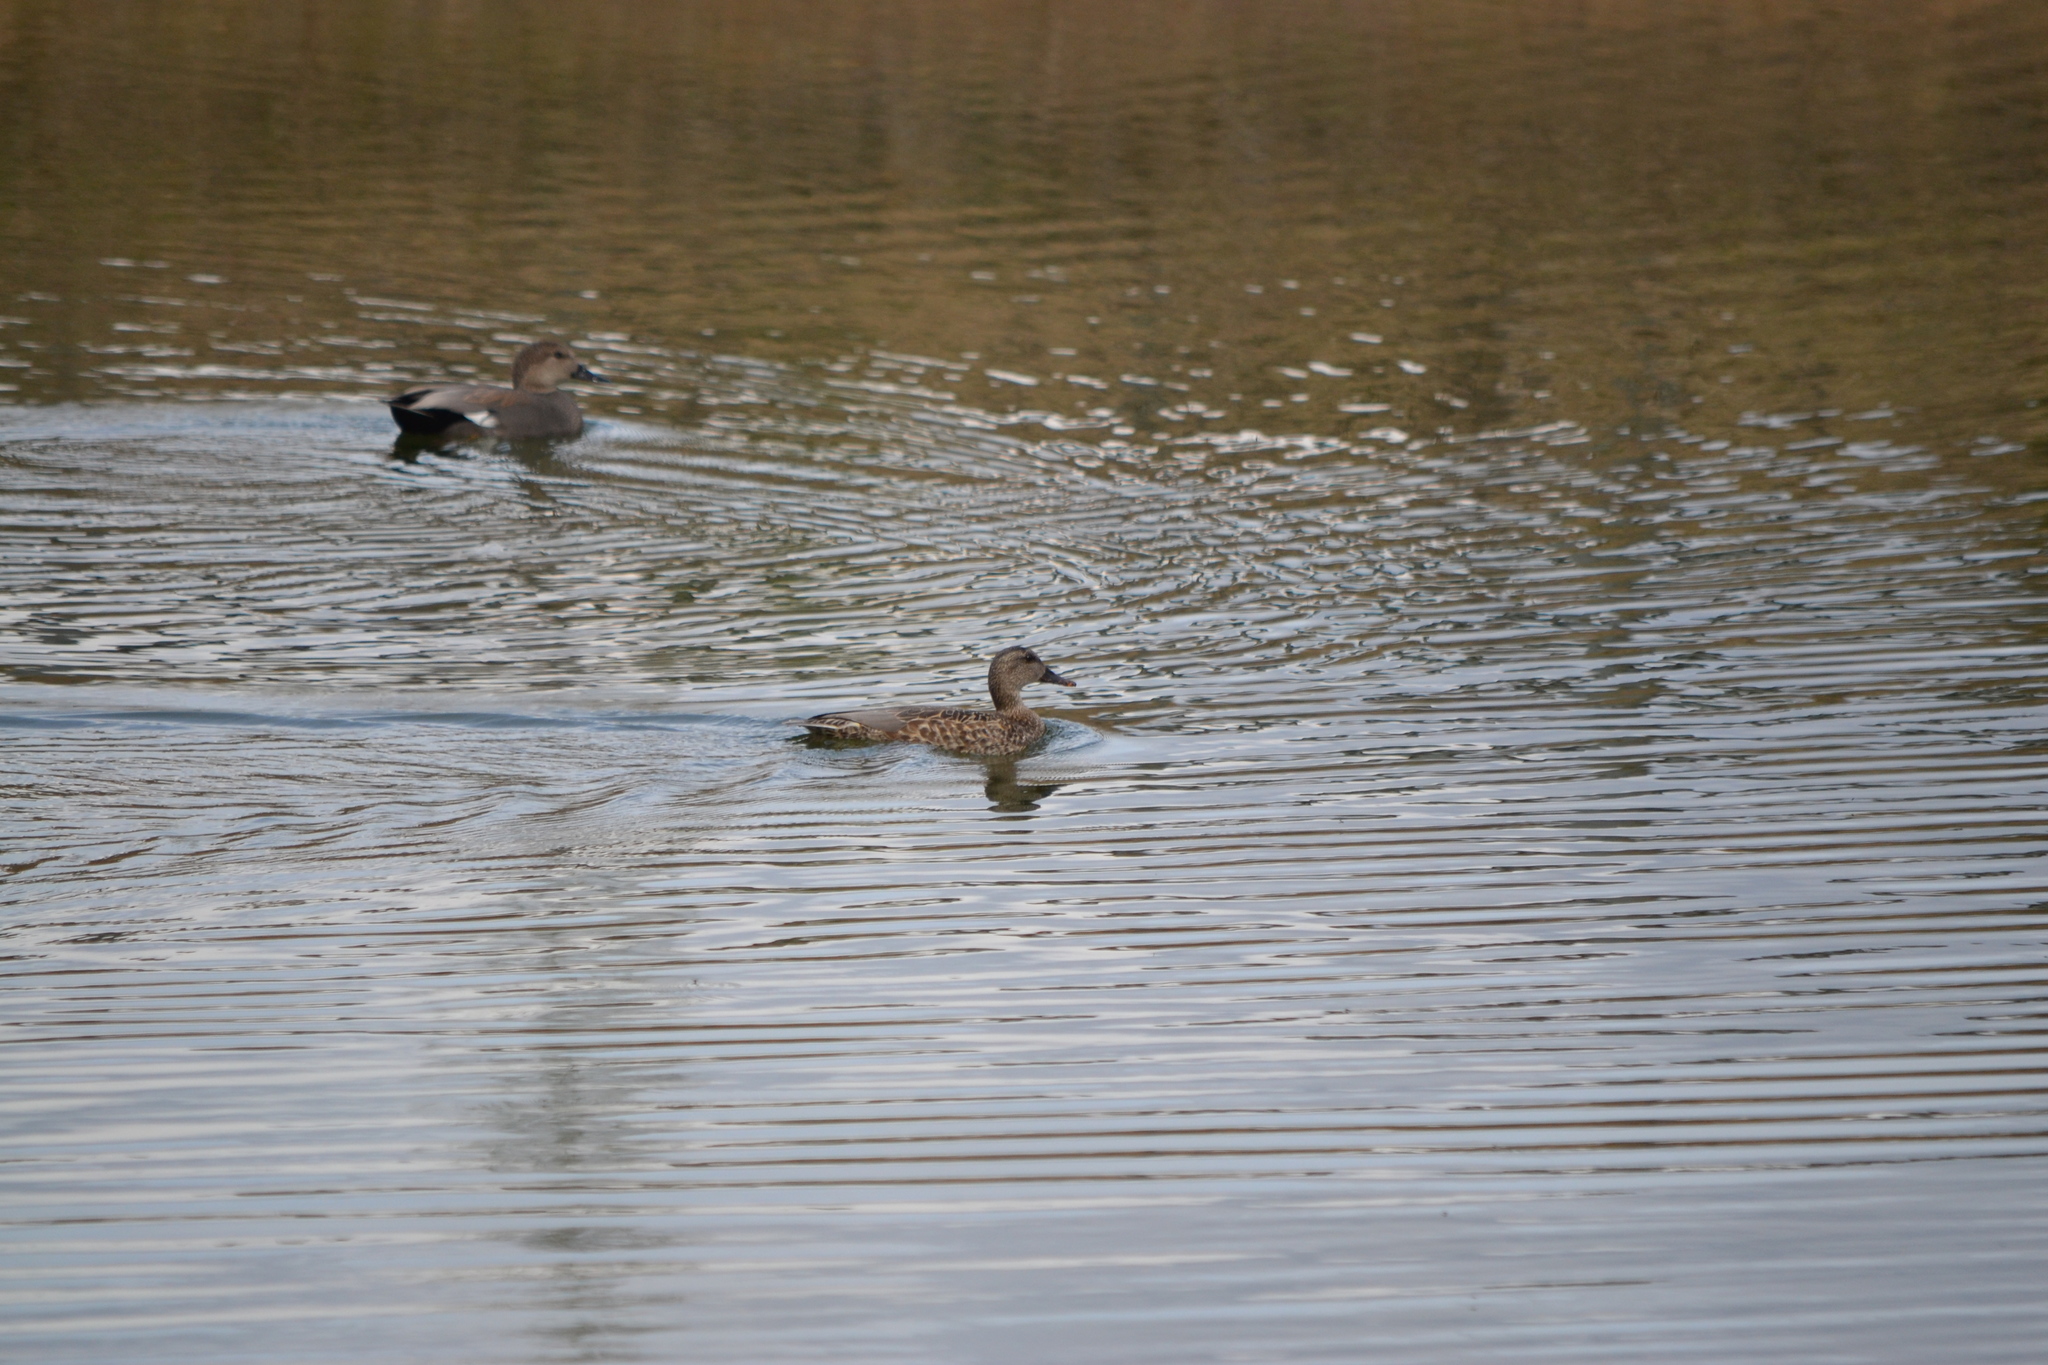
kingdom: Animalia
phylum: Chordata
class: Aves
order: Anseriformes
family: Anatidae
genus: Mareca
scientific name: Mareca strepera
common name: Gadwall
